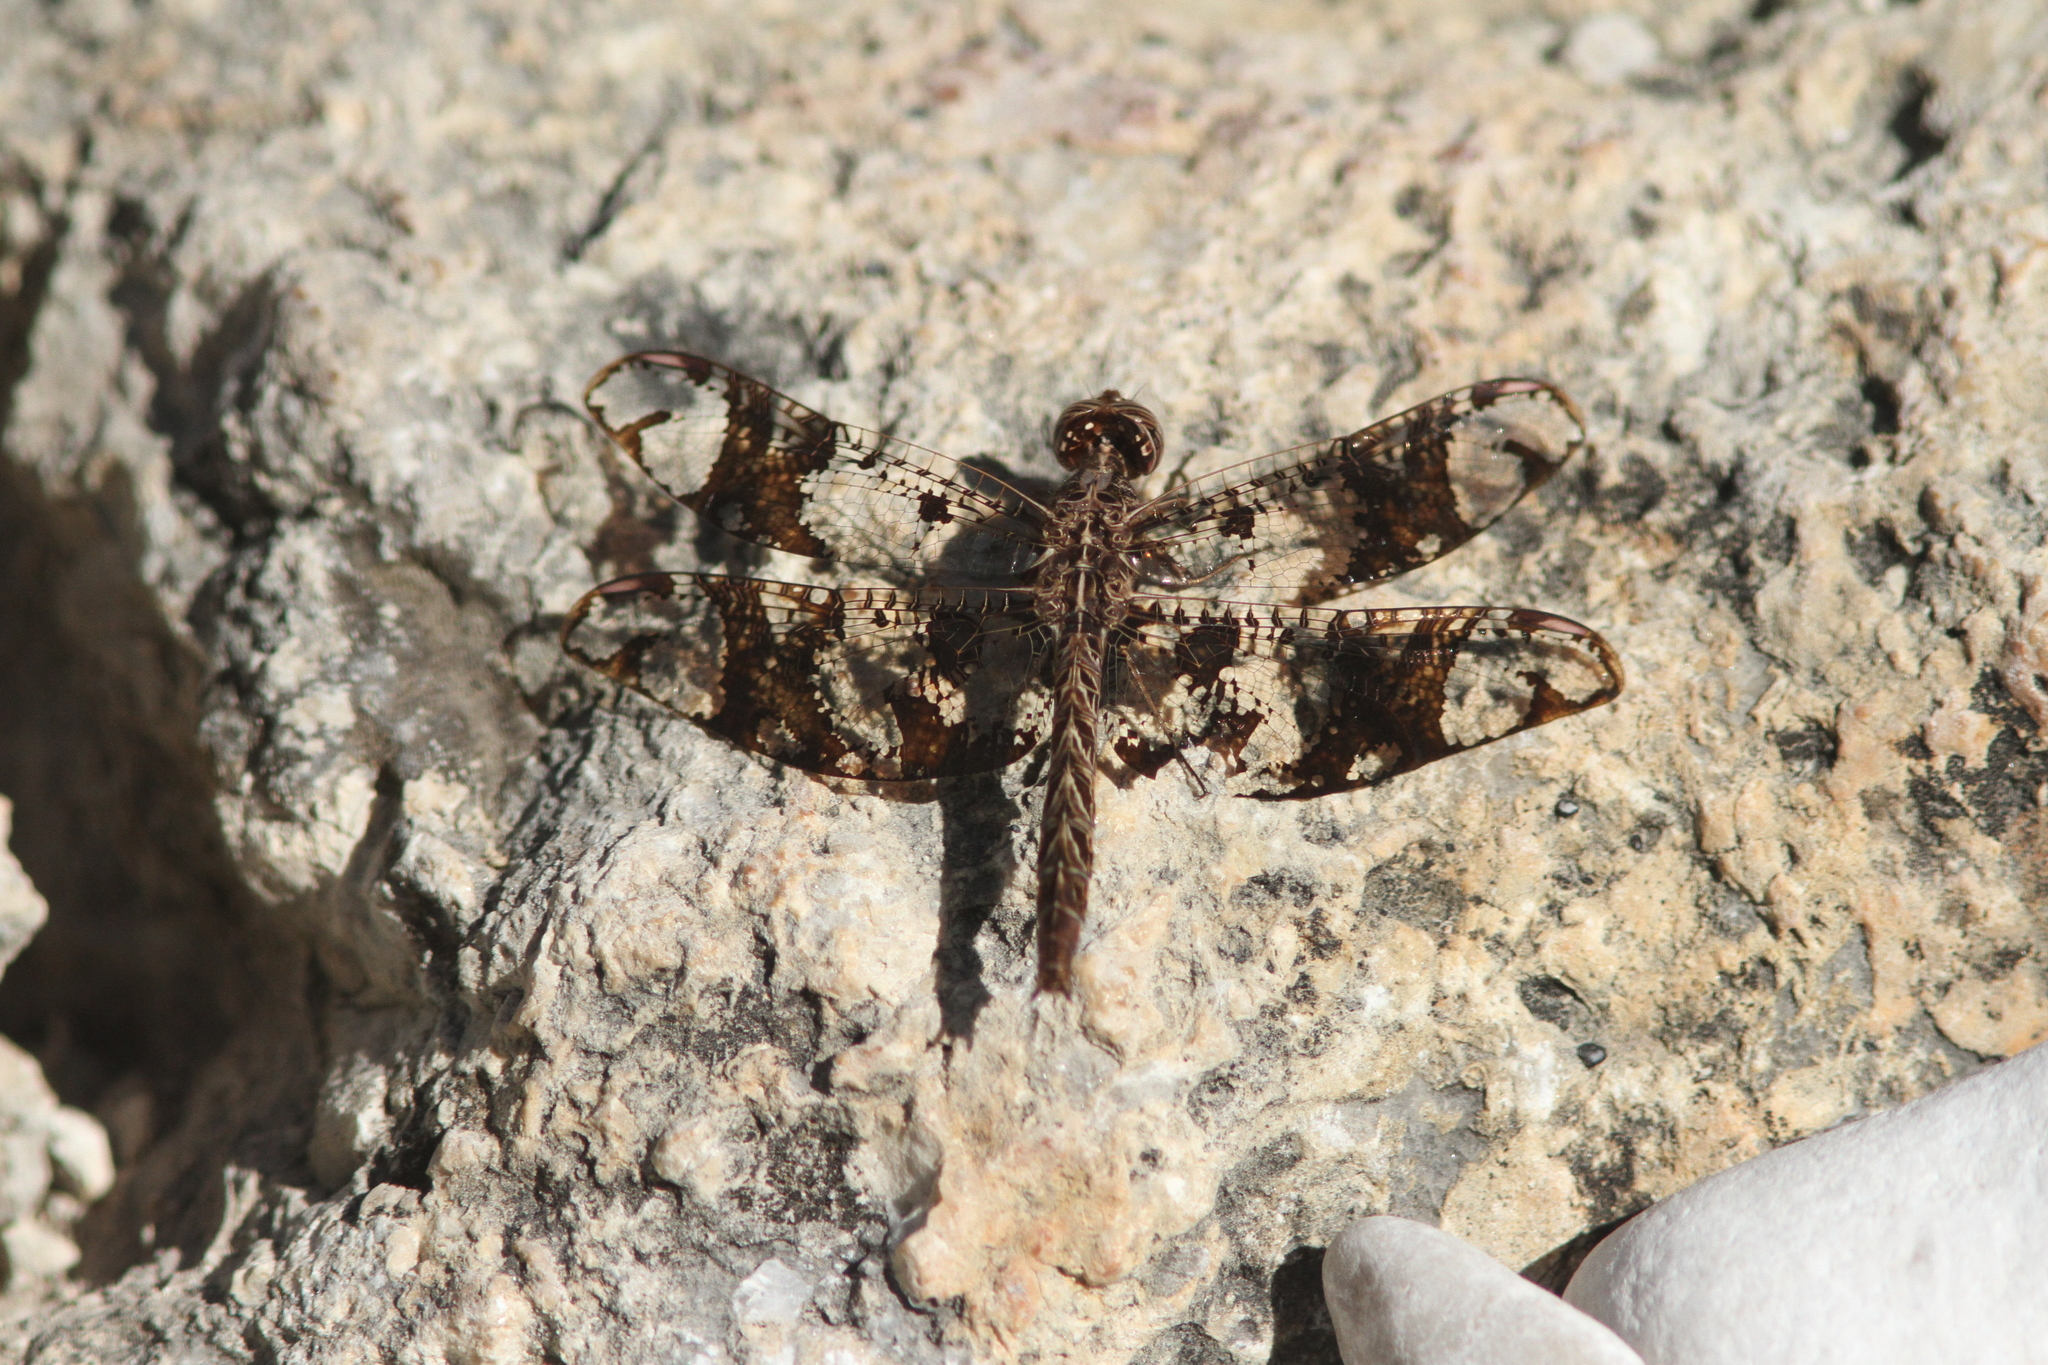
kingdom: Animalia
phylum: Arthropoda
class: Insecta
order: Odonata
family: Libellulidae
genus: Pseudoleon
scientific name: Pseudoleon superbus
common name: Filigree skimmer
